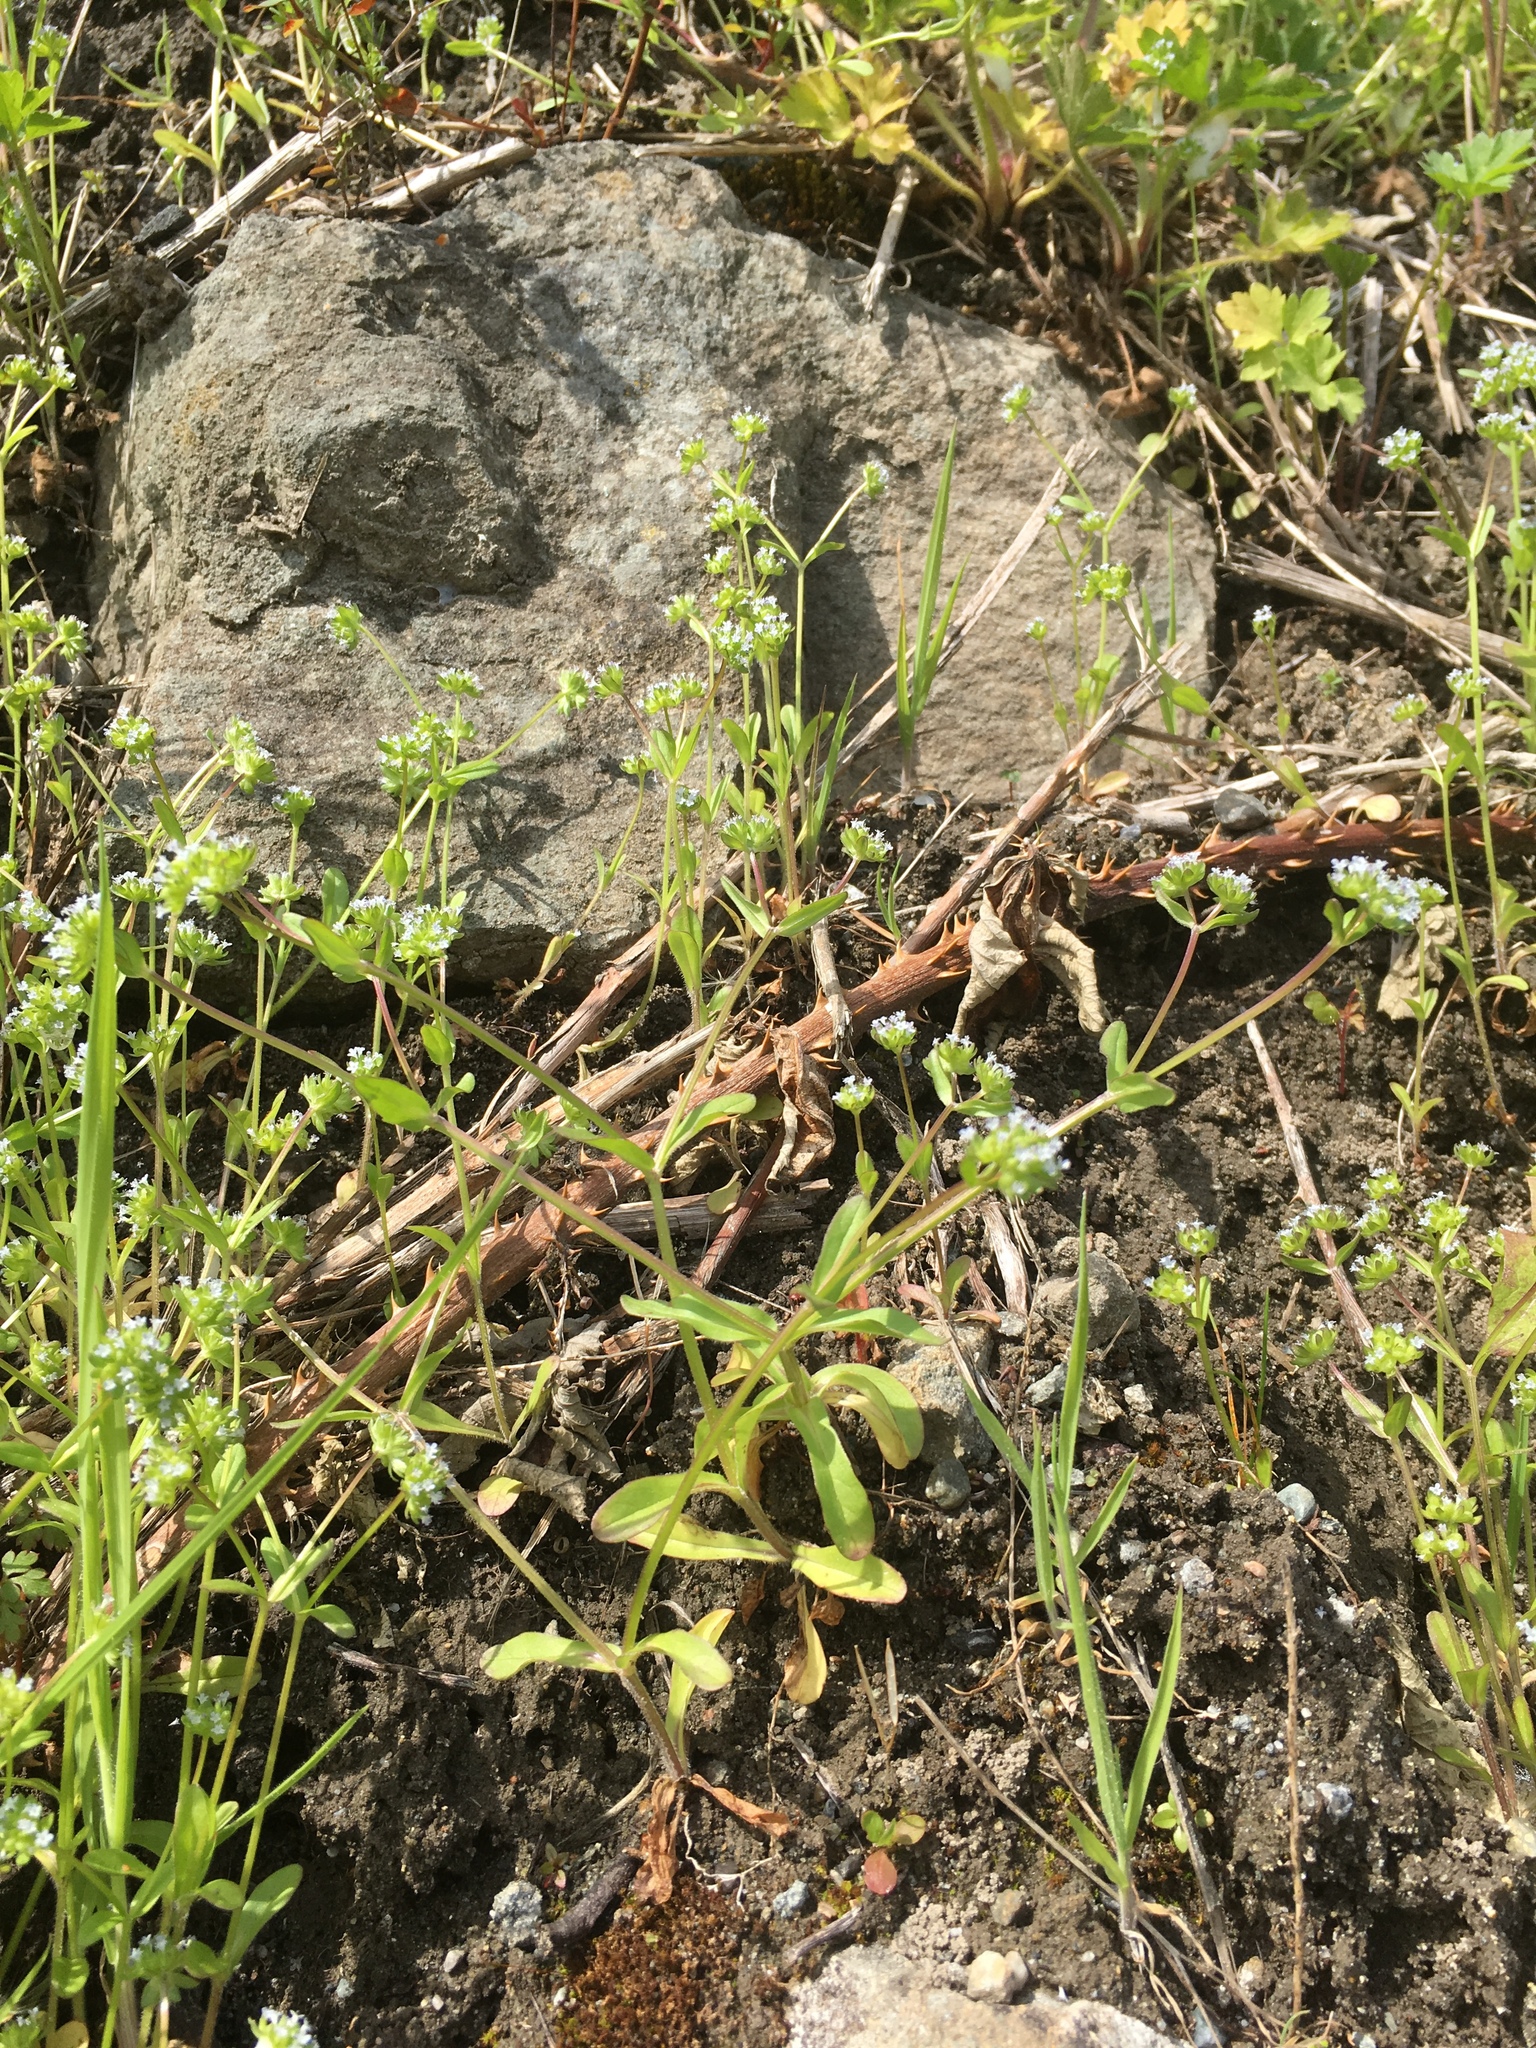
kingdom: Plantae
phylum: Tracheophyta
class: Magnoliopsida
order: Dipsacales
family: Caprifoliaceae
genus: Valerianella
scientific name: Valerianella locusta
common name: Common cornsalad
